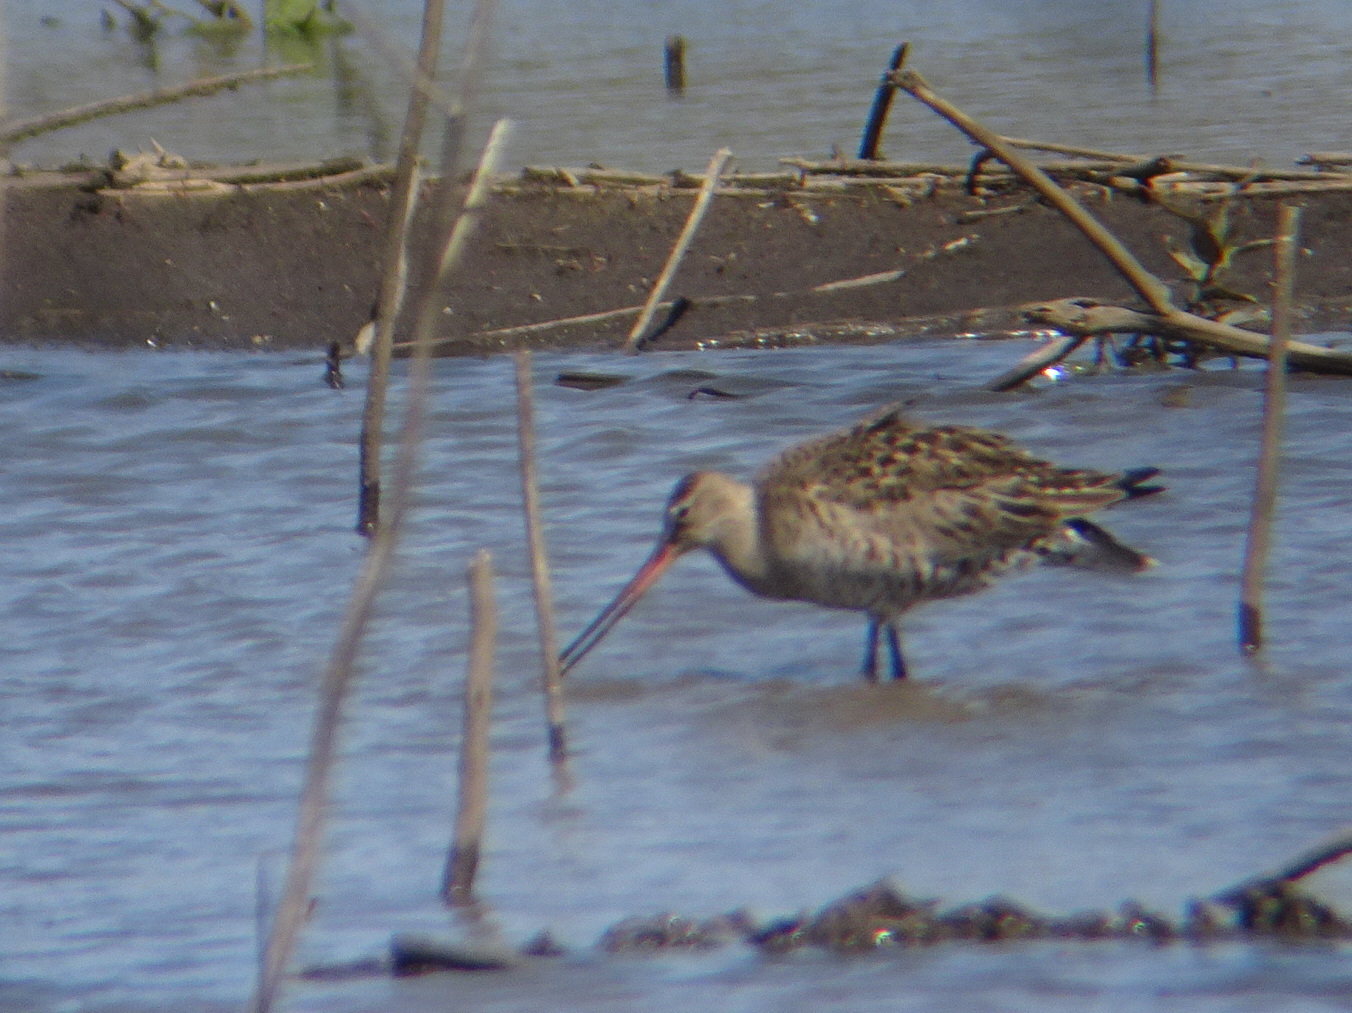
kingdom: Animalia
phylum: Chordata
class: Aves
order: Charadriiformes
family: Scolopacidae
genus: Limosa
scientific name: Limosa haemastica
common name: Hudsonian godwit
